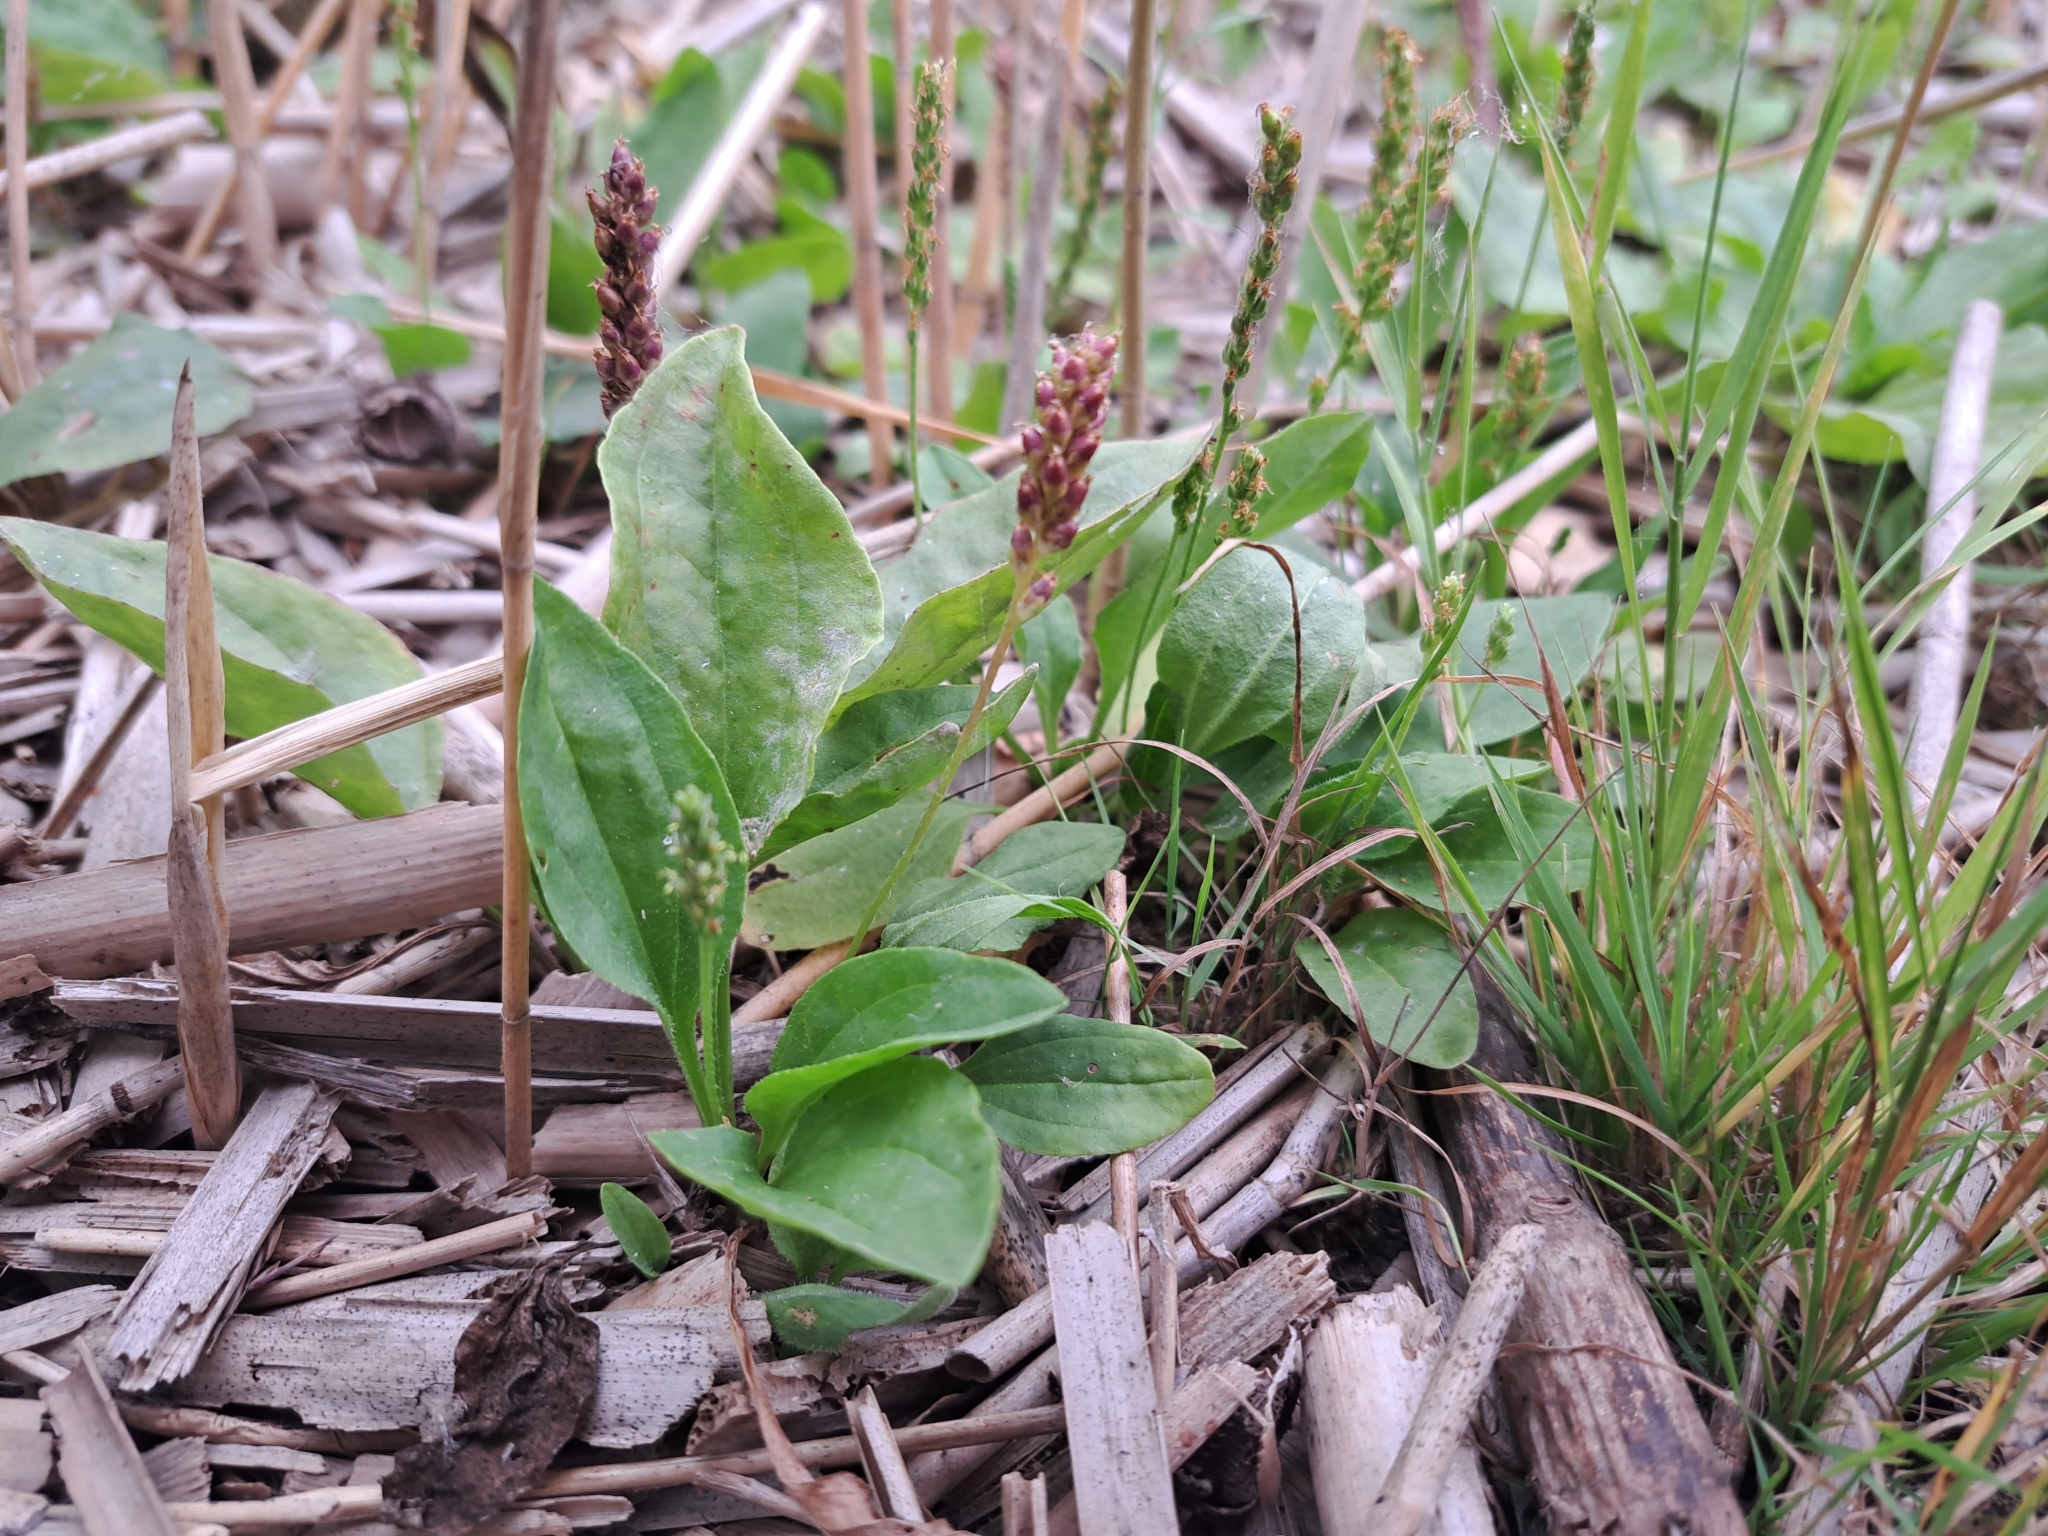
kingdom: Plantae
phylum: Tracheophyta
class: Magnoliopsida
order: Lamiales
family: Plantaginaceae
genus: Plantago
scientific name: Plantago uliginosa
